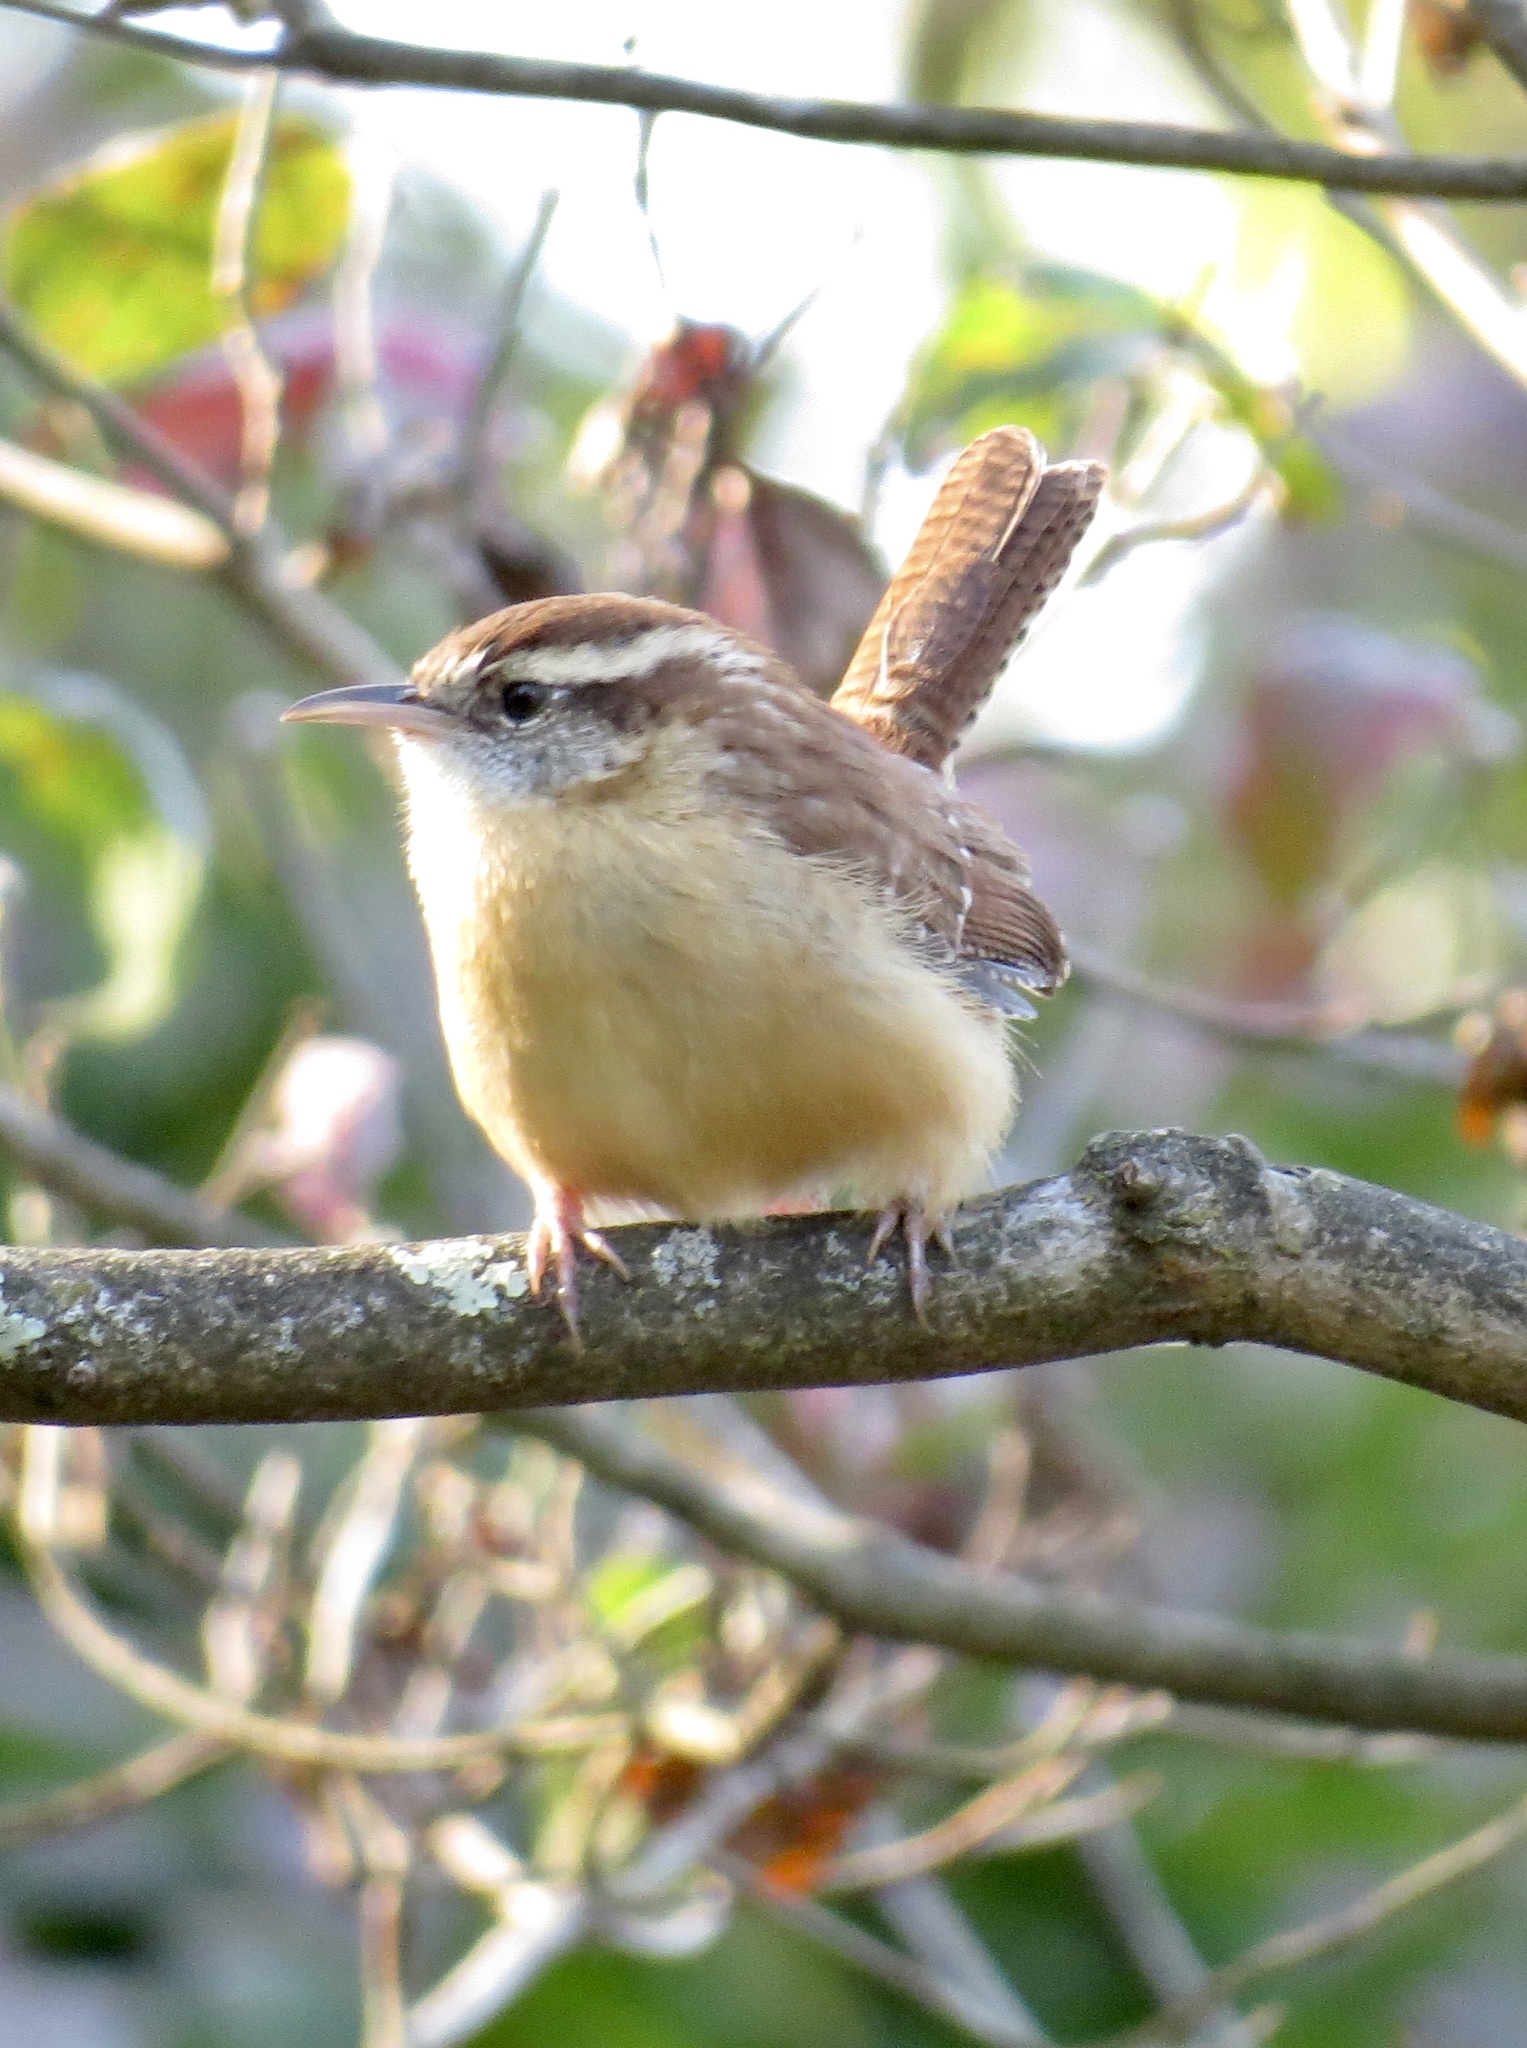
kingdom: Animalia
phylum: Chordata
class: Aves
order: Passeriformes
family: Troglodytidae
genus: Thryothorus
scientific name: Thryothorus ludovicianus
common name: Carolina wren
